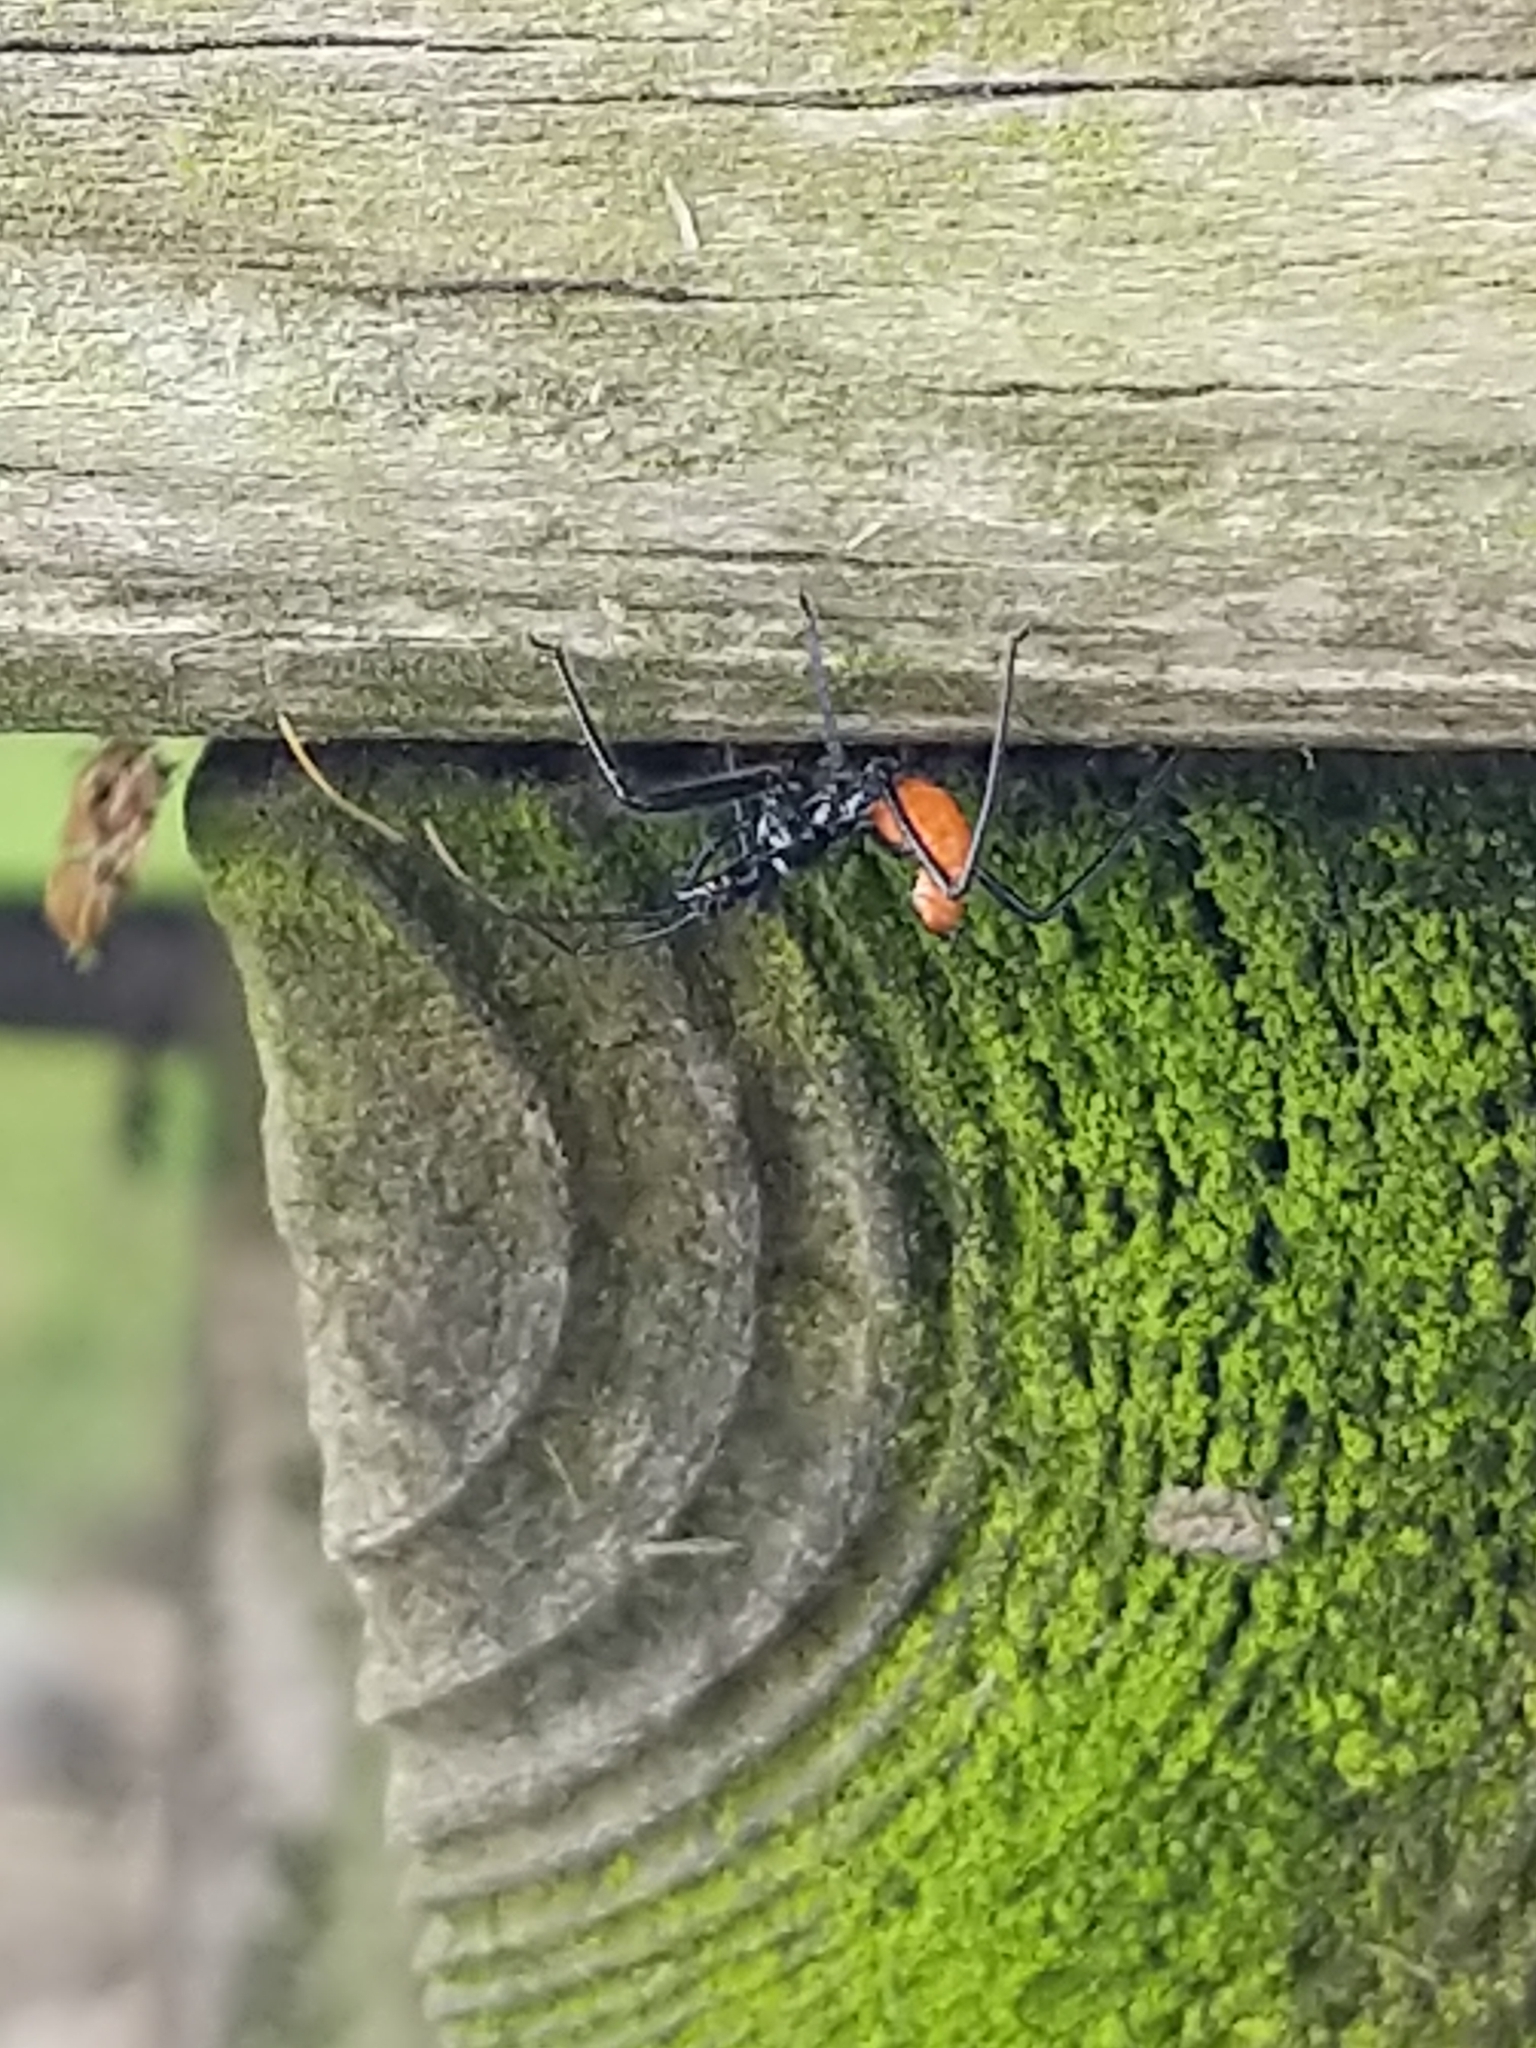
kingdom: Animalia
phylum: Arthropoda
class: Insecta
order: Hemiptera
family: Reduviidae
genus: Arilus
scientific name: Arilus cristatus
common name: North american wheel bug
